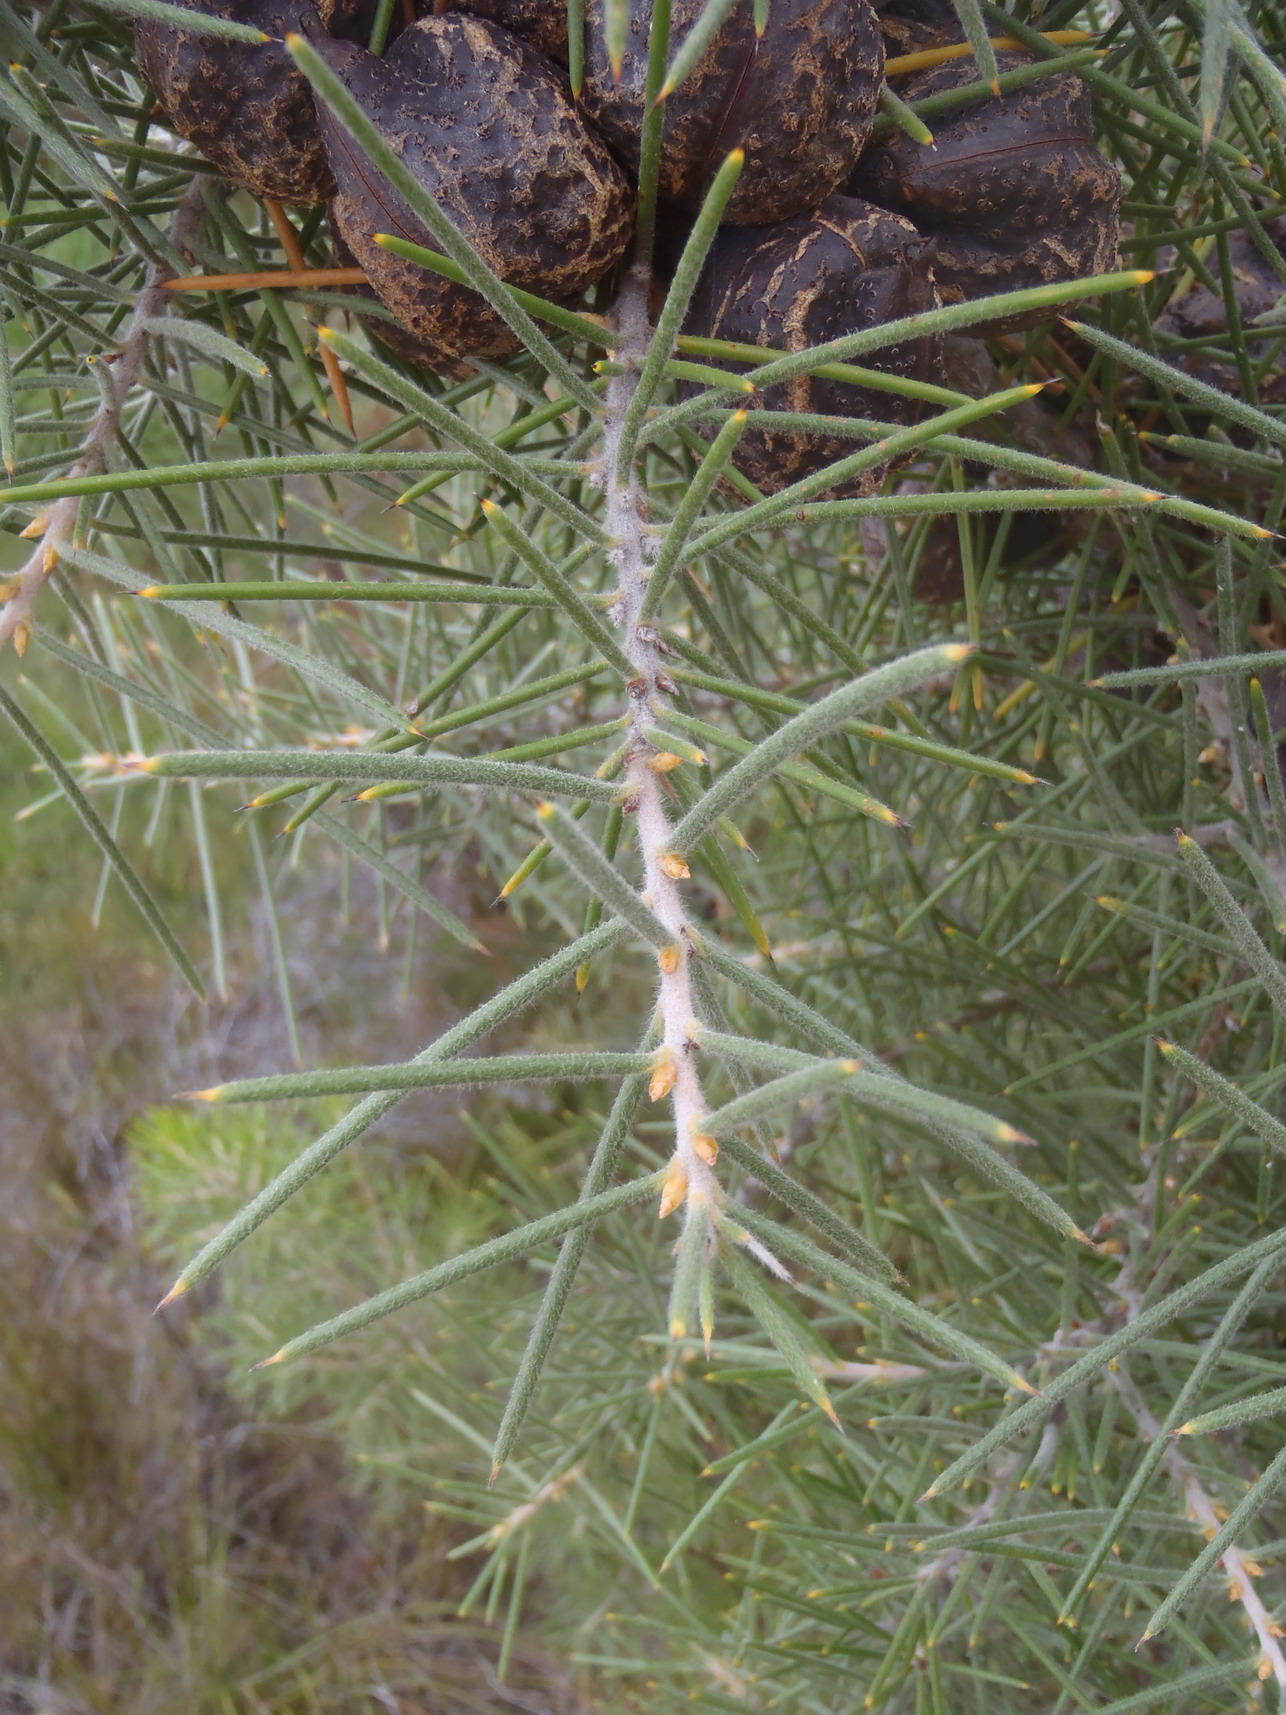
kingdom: Plantae
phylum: Tracheophyta
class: Magnoliopsida
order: Proteales
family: Proteaceae
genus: Hakea
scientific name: Hakea sericea
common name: Needle bush
